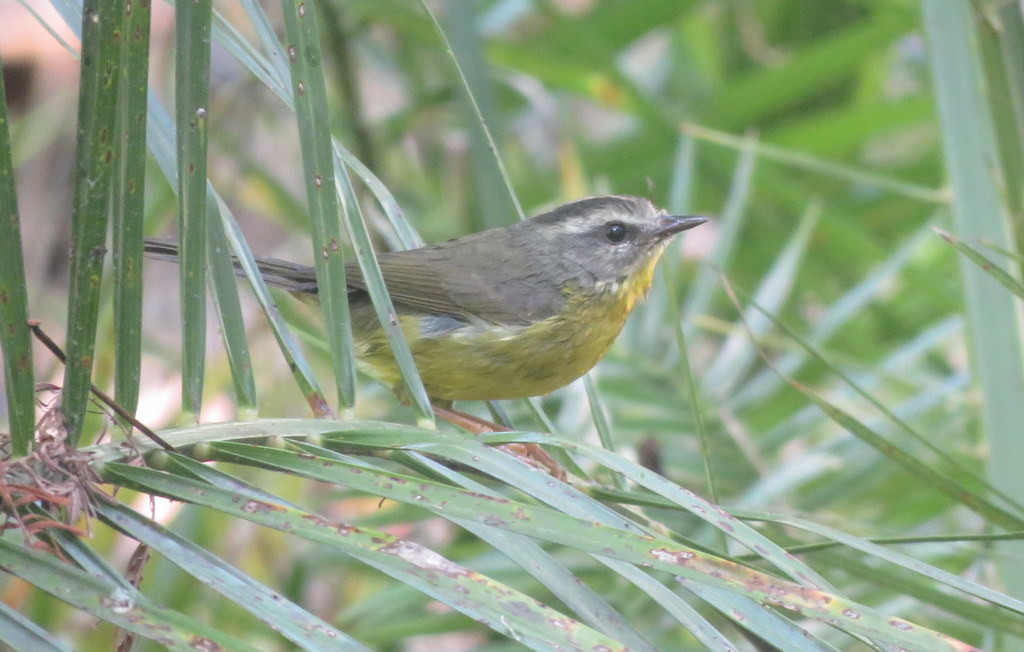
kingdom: Animalia
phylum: Chordata
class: Aves
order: Passeriformes
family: Parulidae
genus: Basileuterus
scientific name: Basileuterus culicivorus
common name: Golden-crowned warbler
